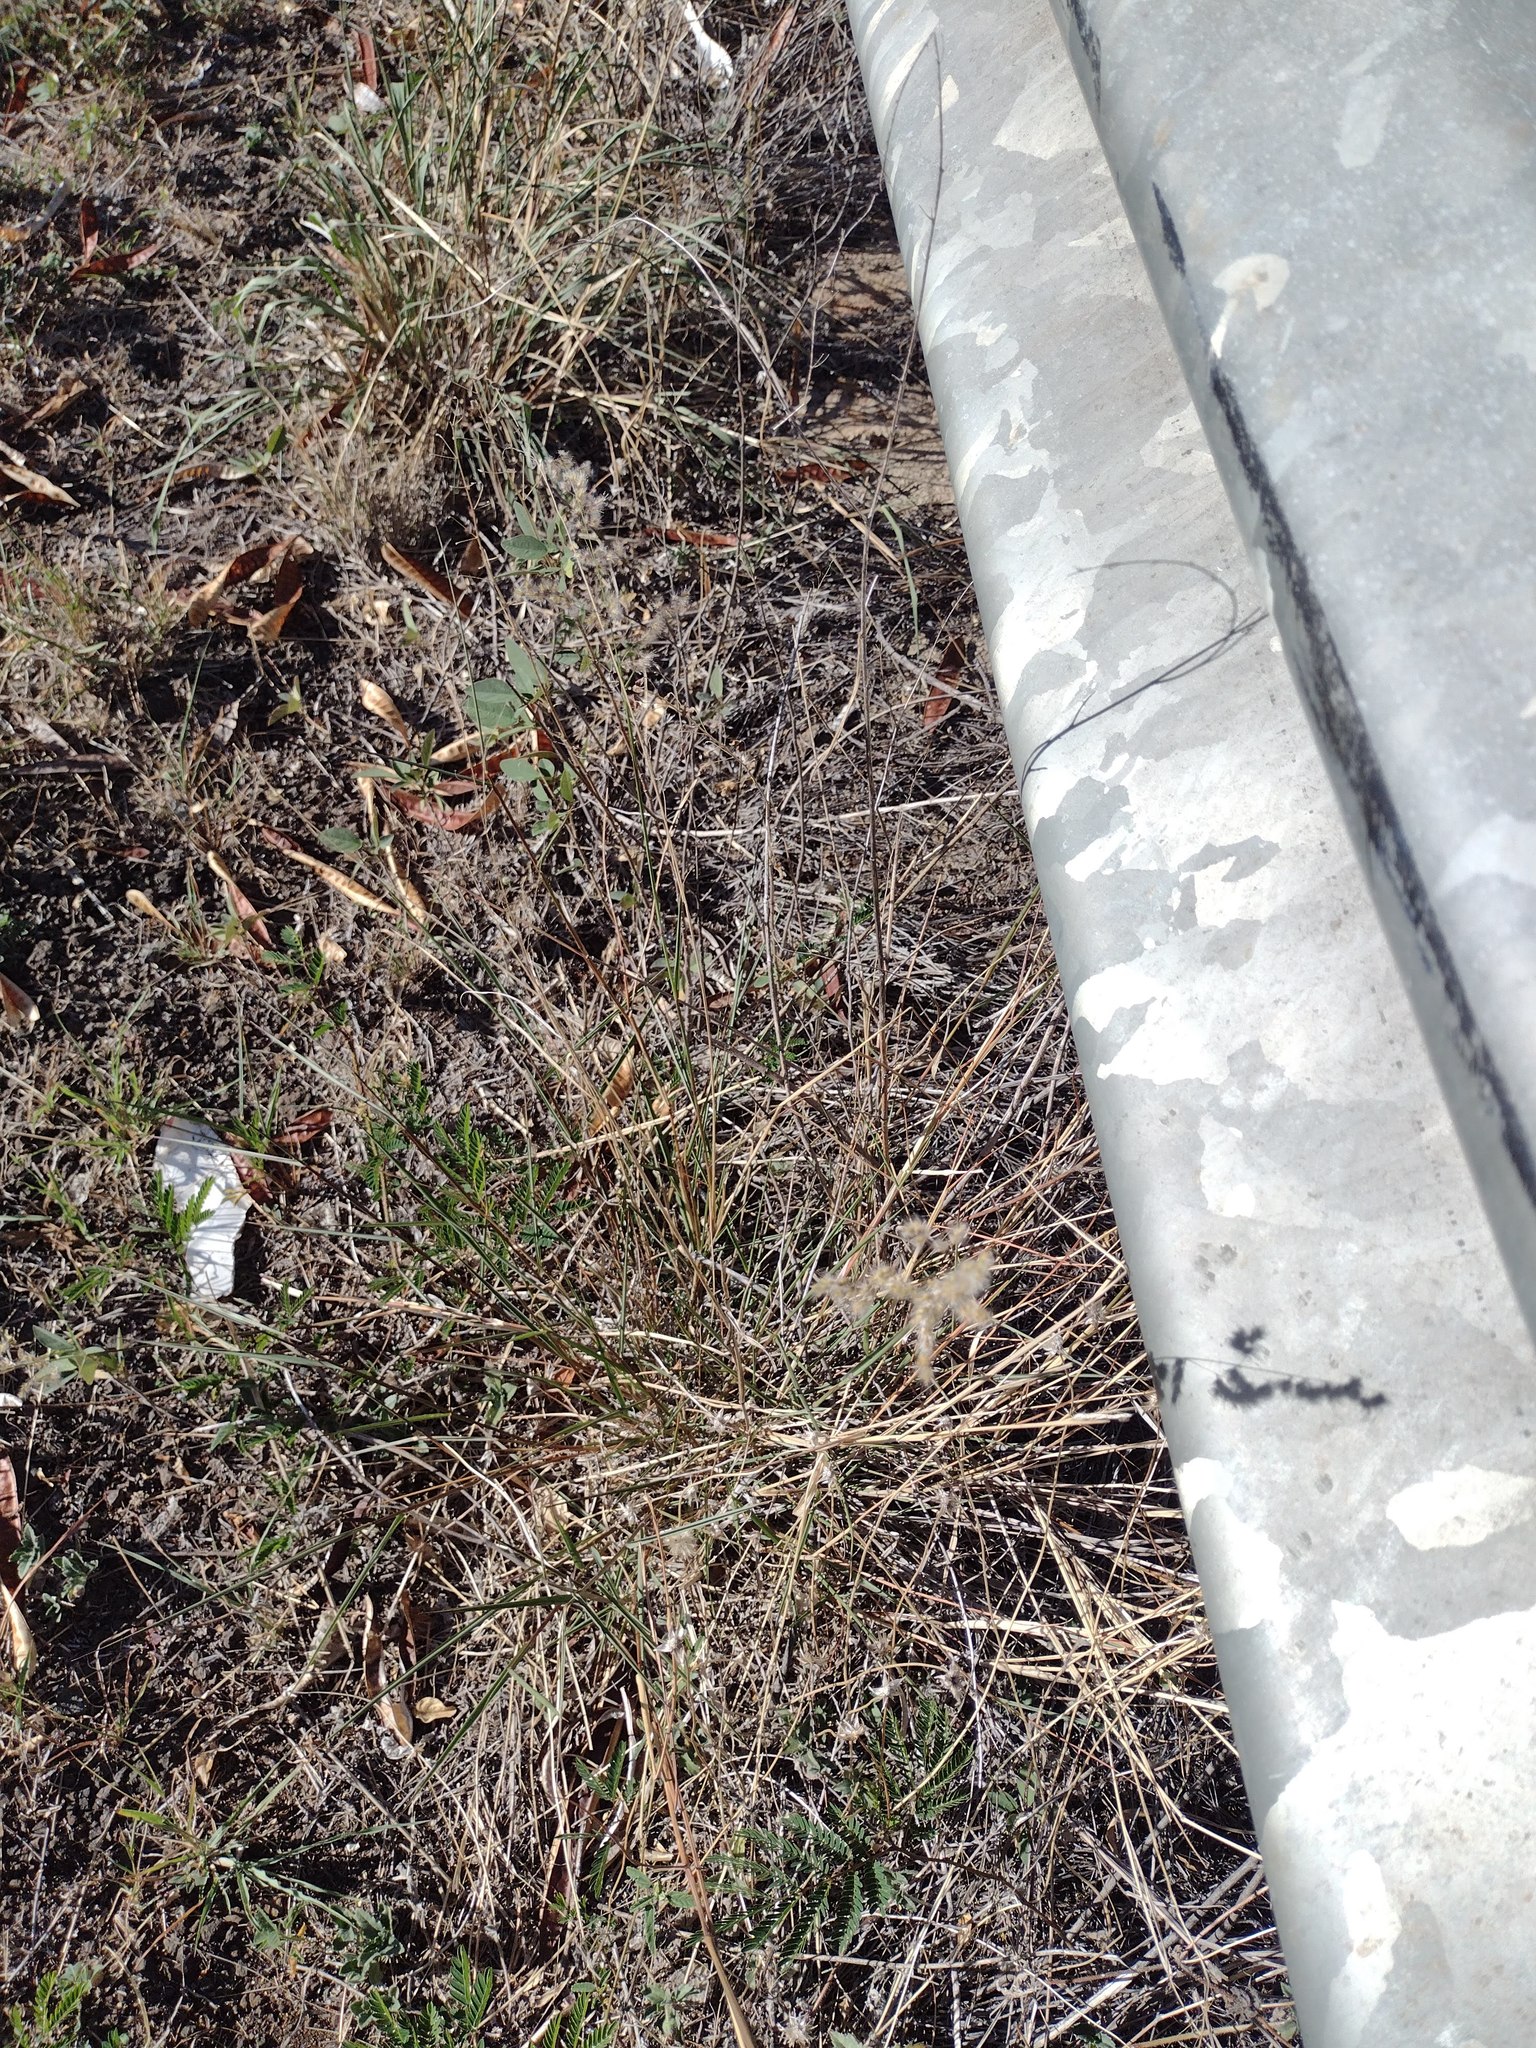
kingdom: Plantae
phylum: Tracheophyta
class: Liliopsida
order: Poales
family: Poaceae
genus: Melinis
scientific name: Melinis repens
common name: Rose natal grass
